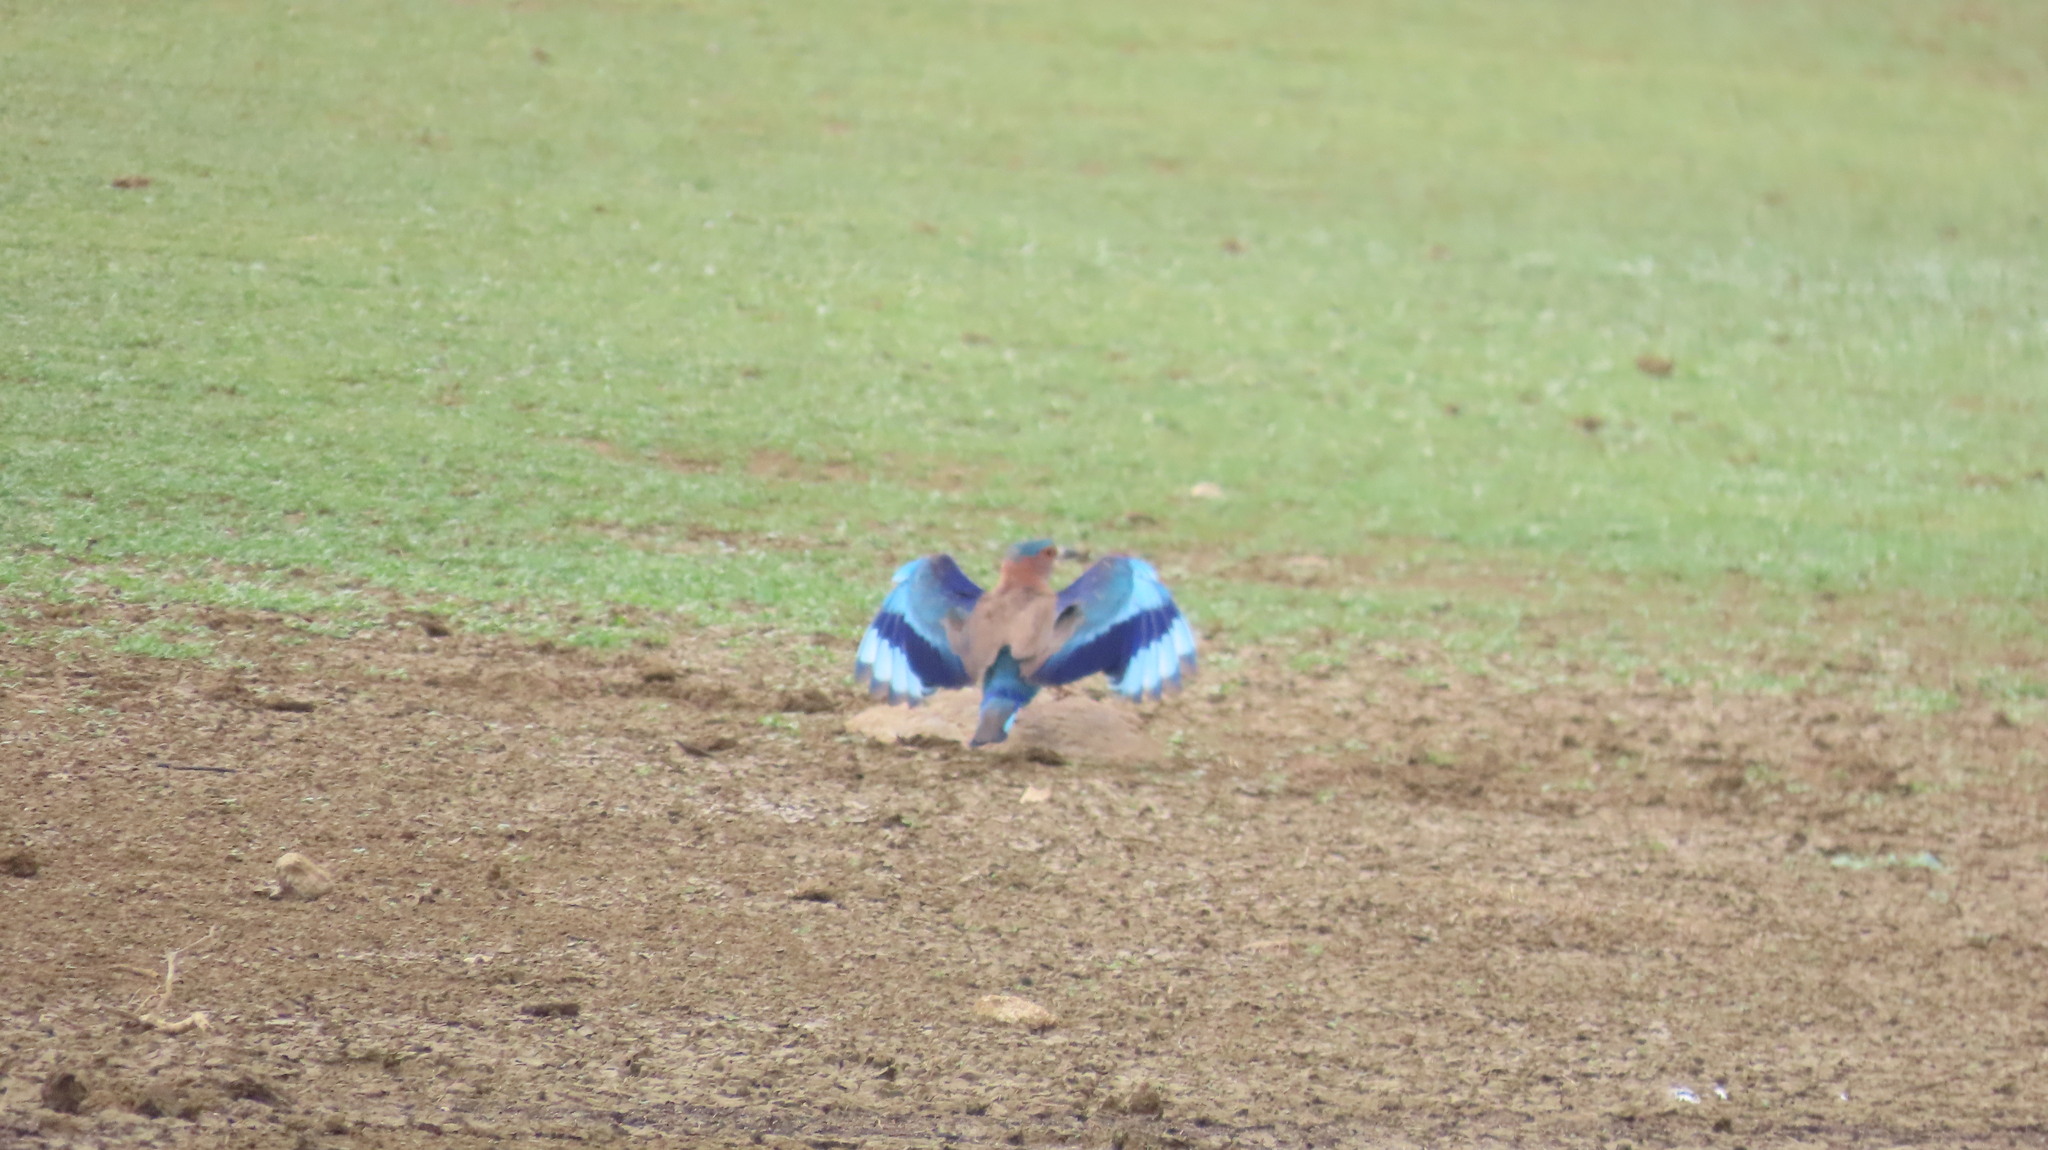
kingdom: Animalia
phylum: Chordata
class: Aves
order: Coraciiformes
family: Coraciidae
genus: Coracias
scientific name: Coracias benghalensis
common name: Indian roller
